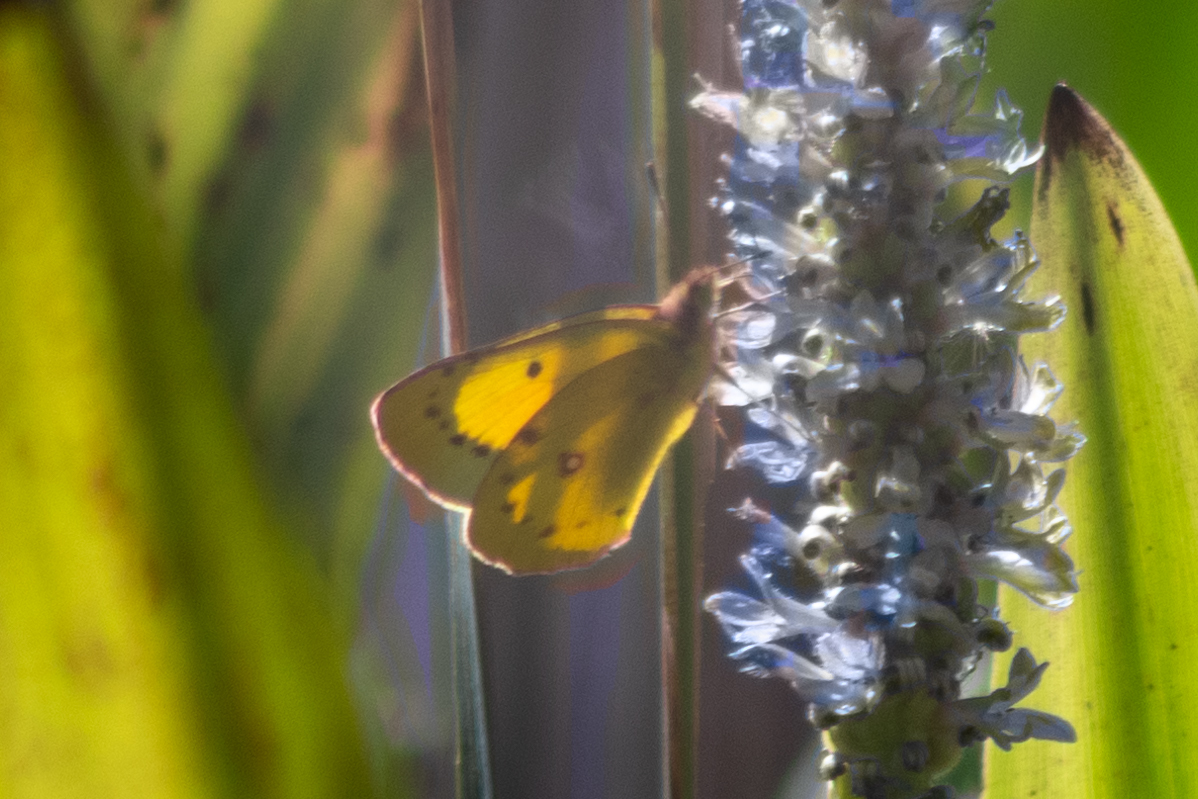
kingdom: Animalia
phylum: Arthropoda
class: Insecta
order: Lepidoptera
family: Pieridae
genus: Colias
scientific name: Colias eurytheme
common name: Alfalfa butterfly
